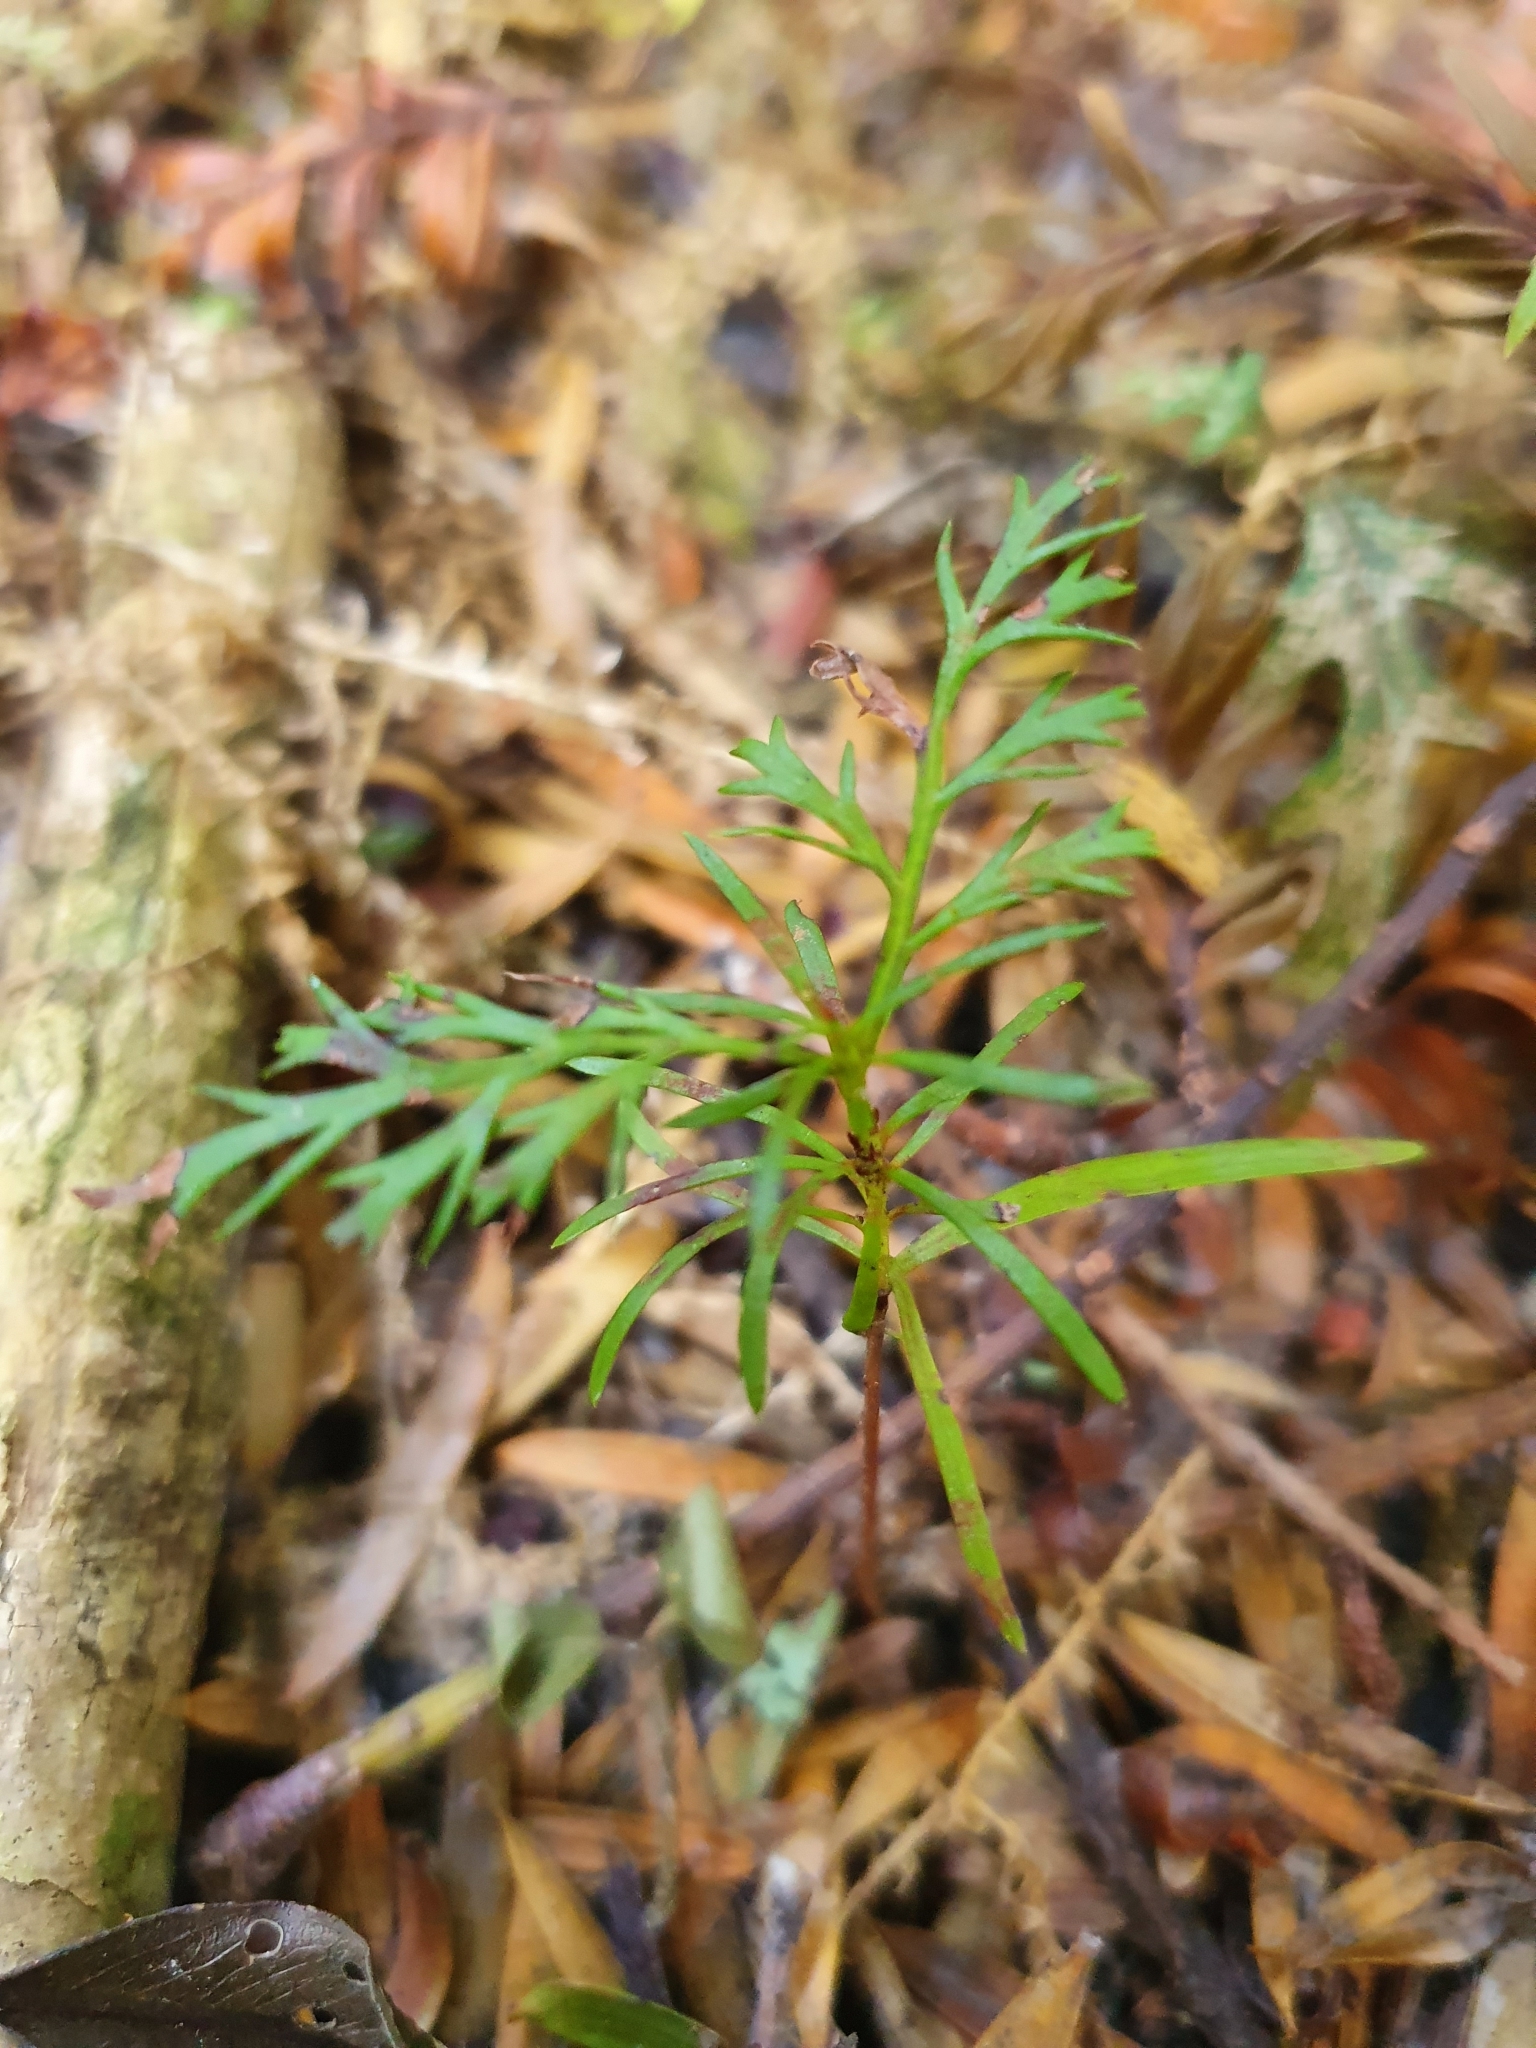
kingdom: Plantae
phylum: Tracheophyta
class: Pinopsida
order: Pinales
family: Phyllocladaceae
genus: Phyllocladus
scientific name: Phyllocladus trichomanoides
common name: Celery pine
